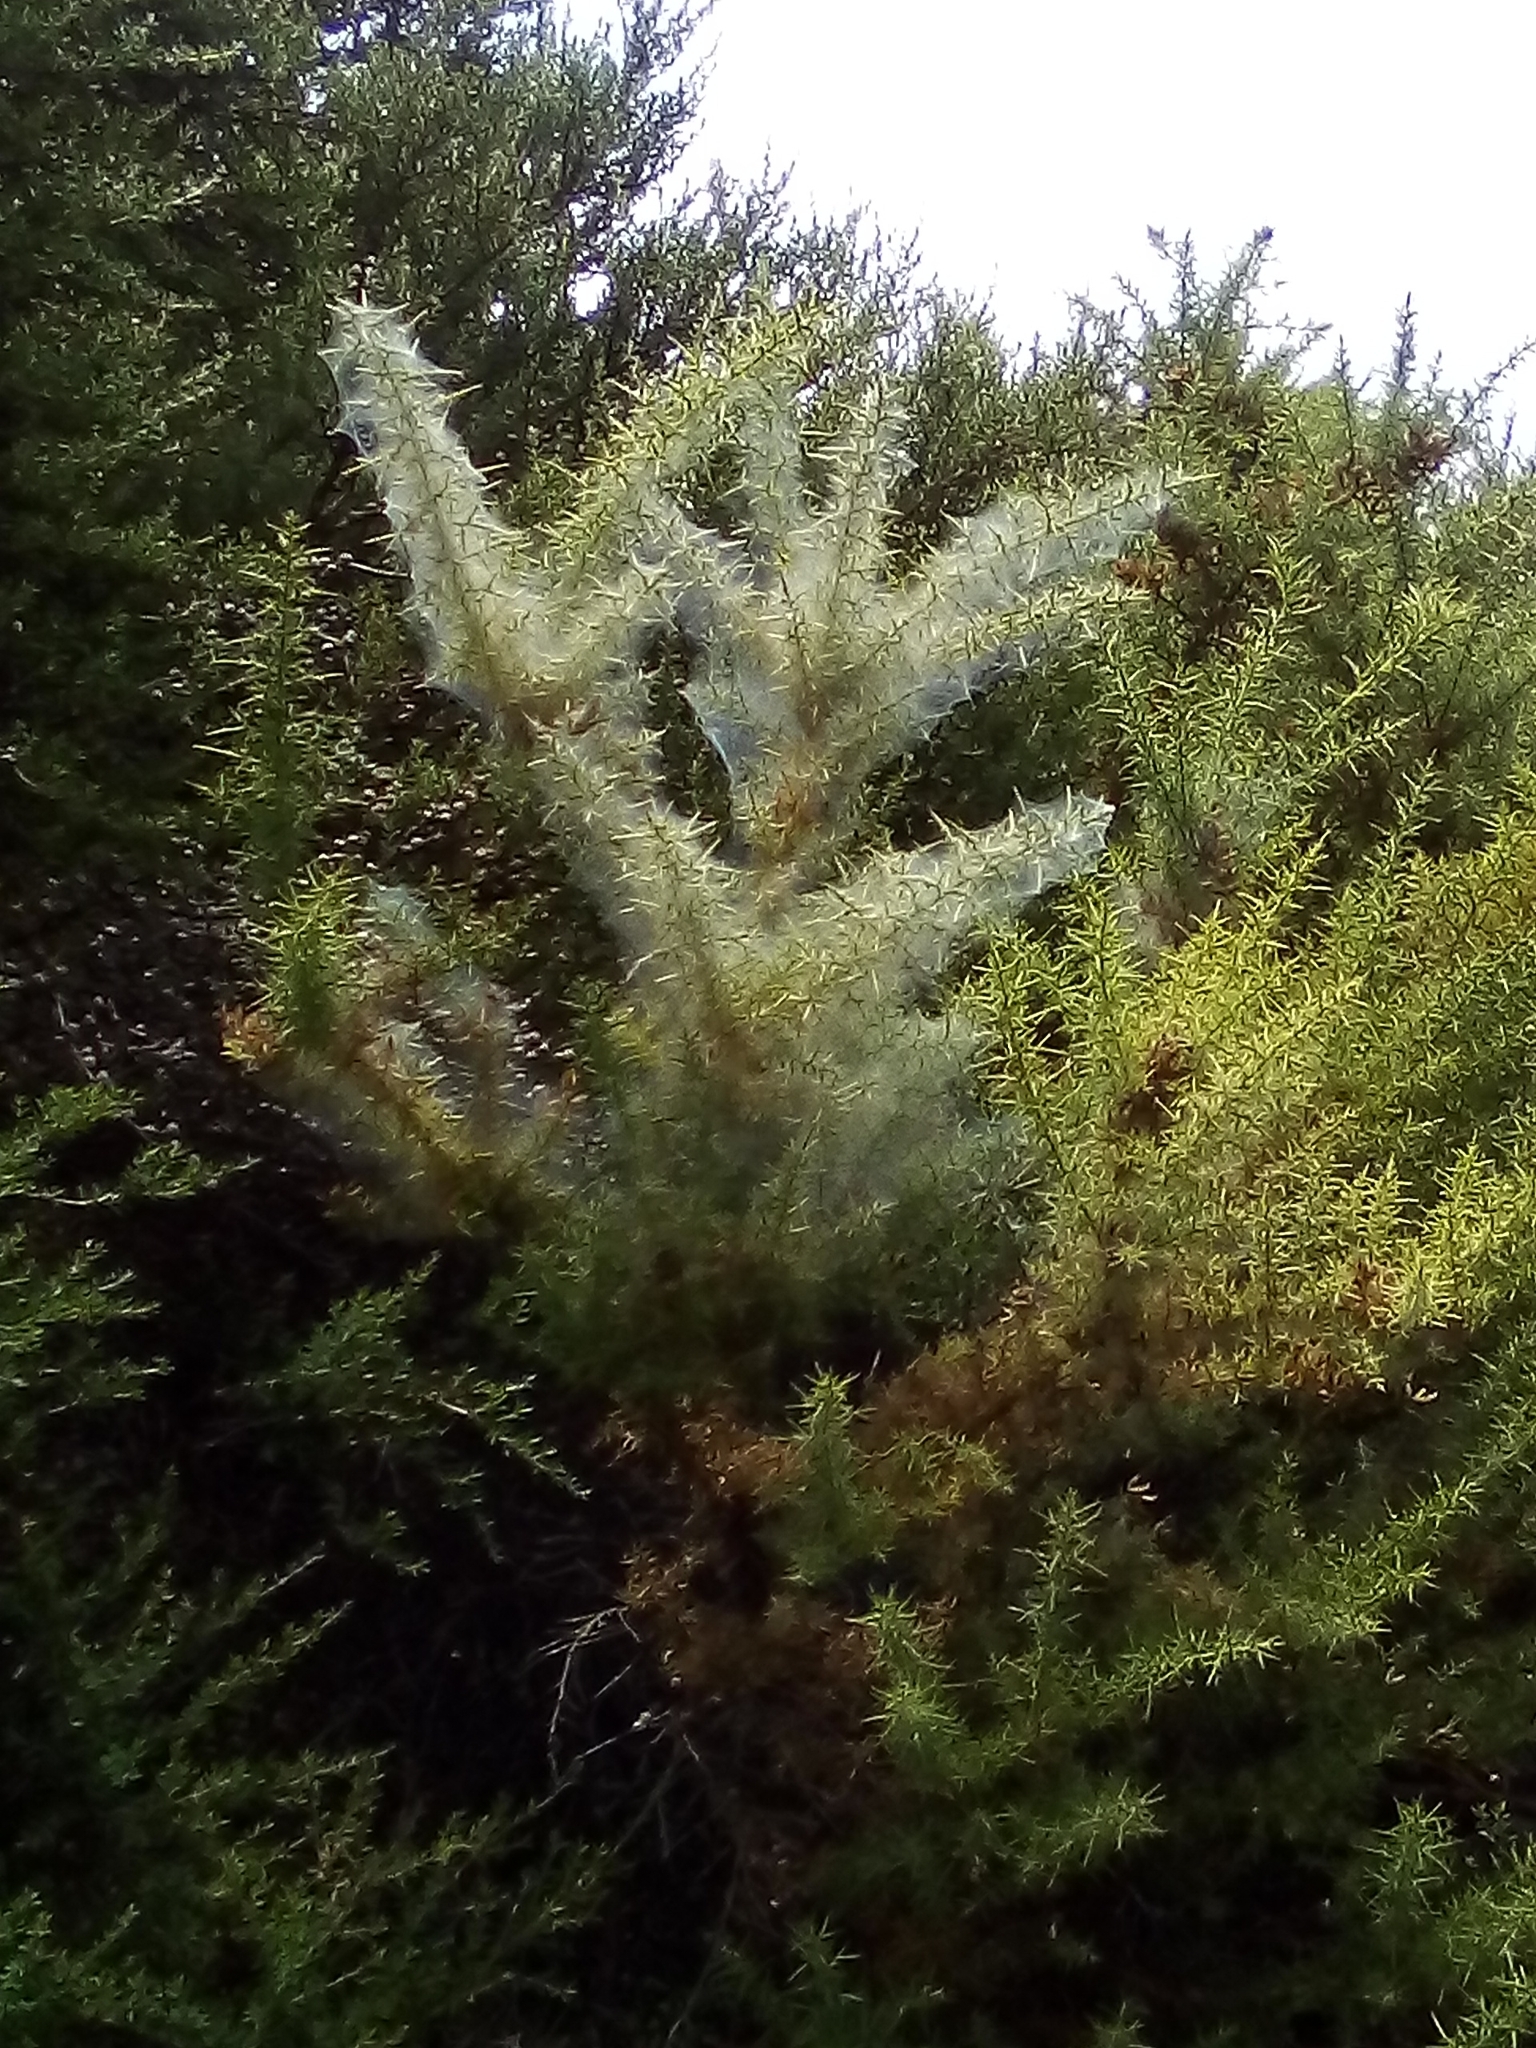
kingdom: Animalia
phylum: Arthropoda
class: Arachnida
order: Trombidiformes
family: Tetranychidae
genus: Tetranychus
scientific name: Tetranychus lintearius
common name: Gorse spider mite
